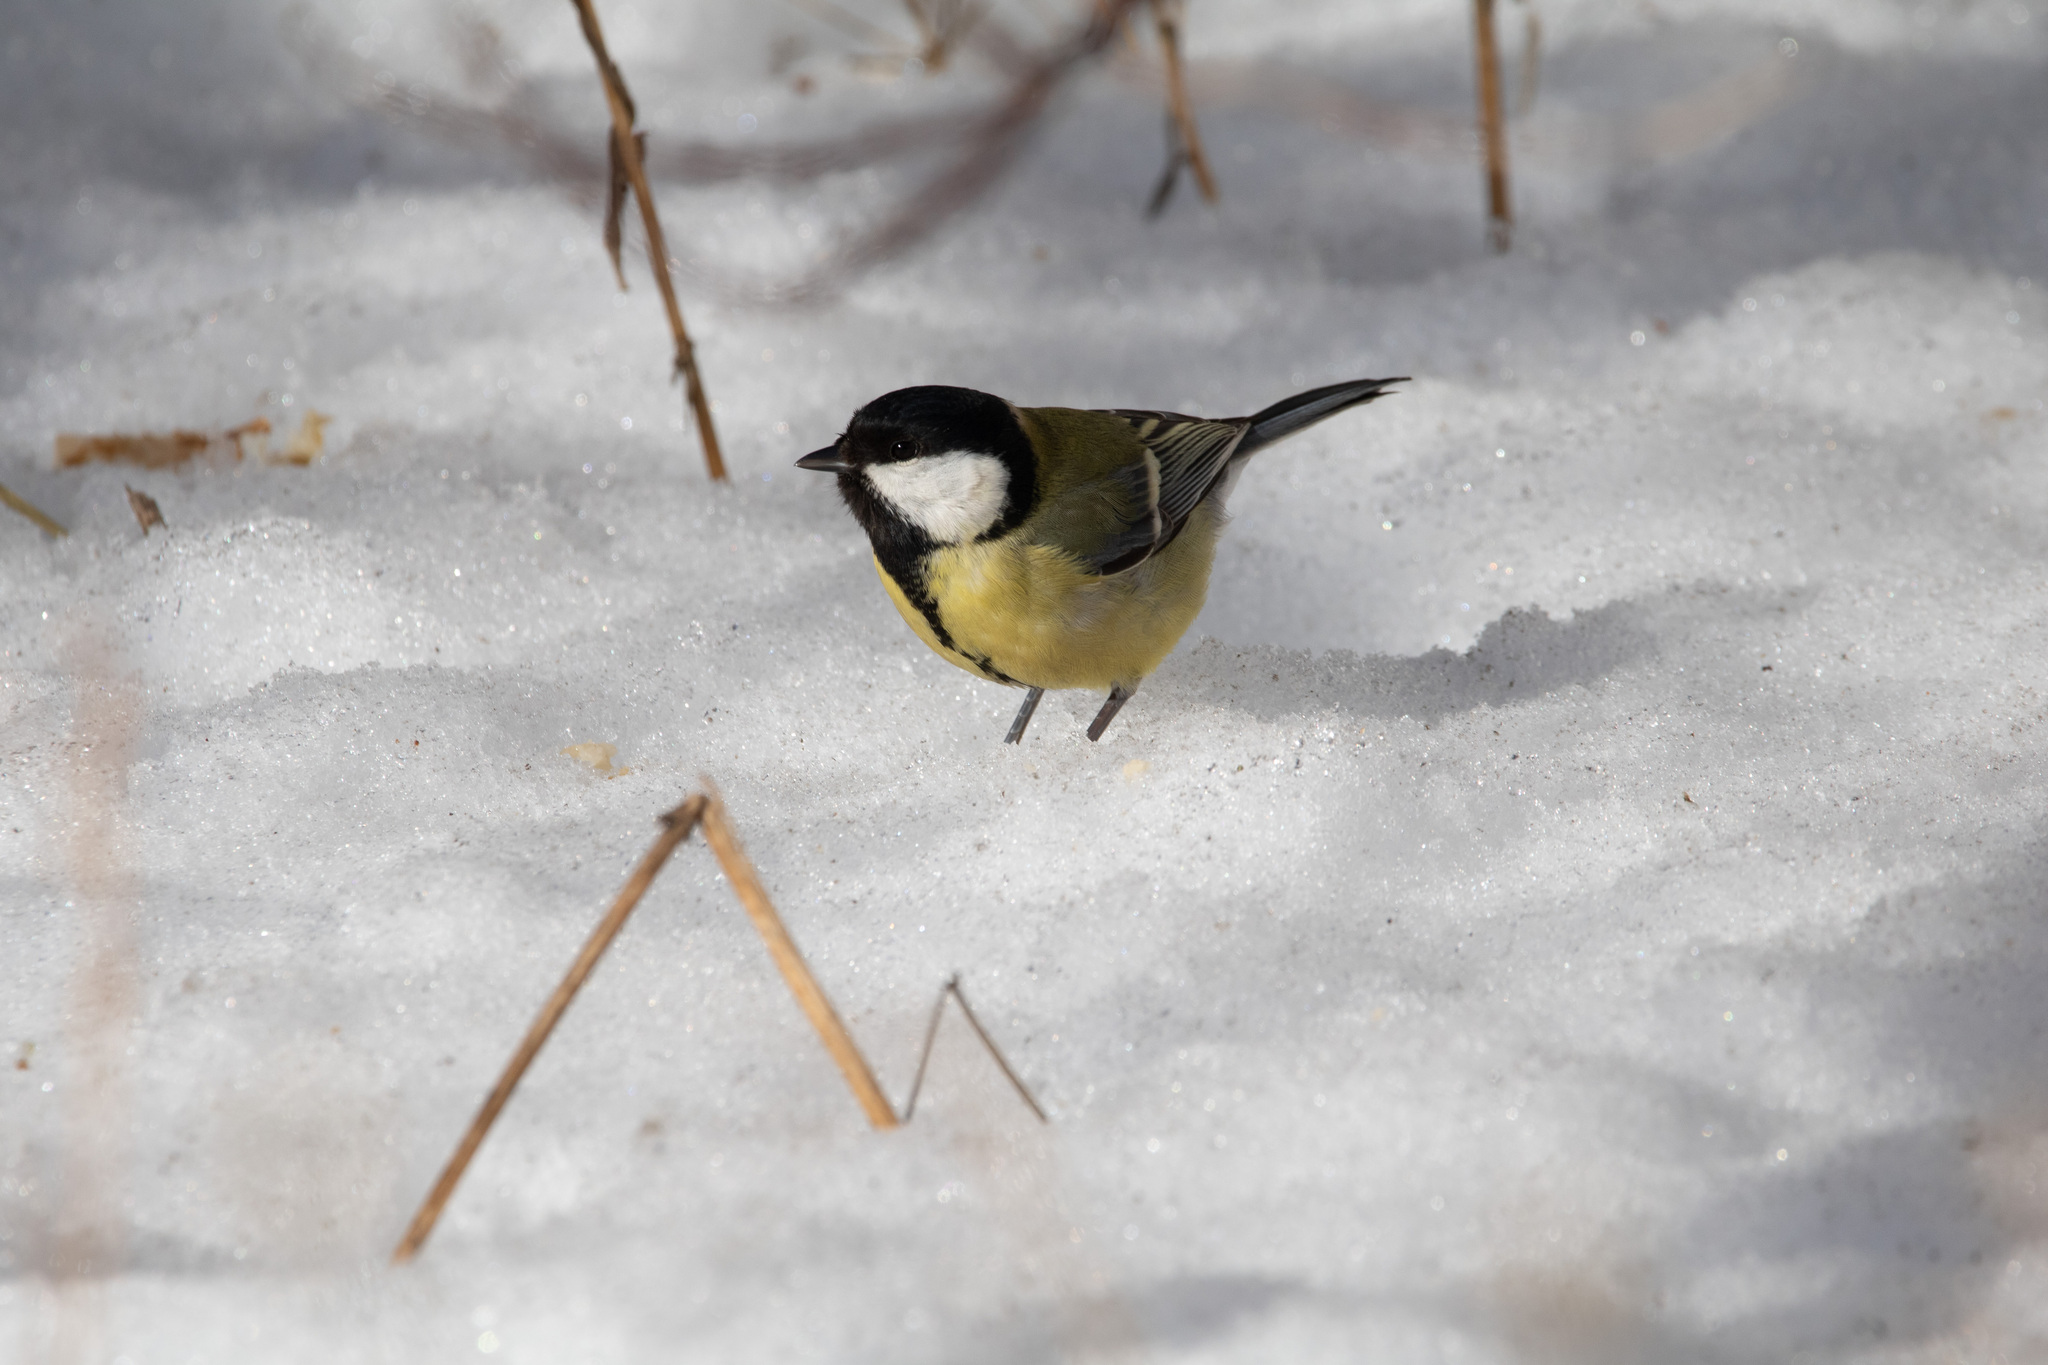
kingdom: Animalia
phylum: Chordata
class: Aves
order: Passeriformes
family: Paridae
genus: Parus
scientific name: Parus major
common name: Great tit
